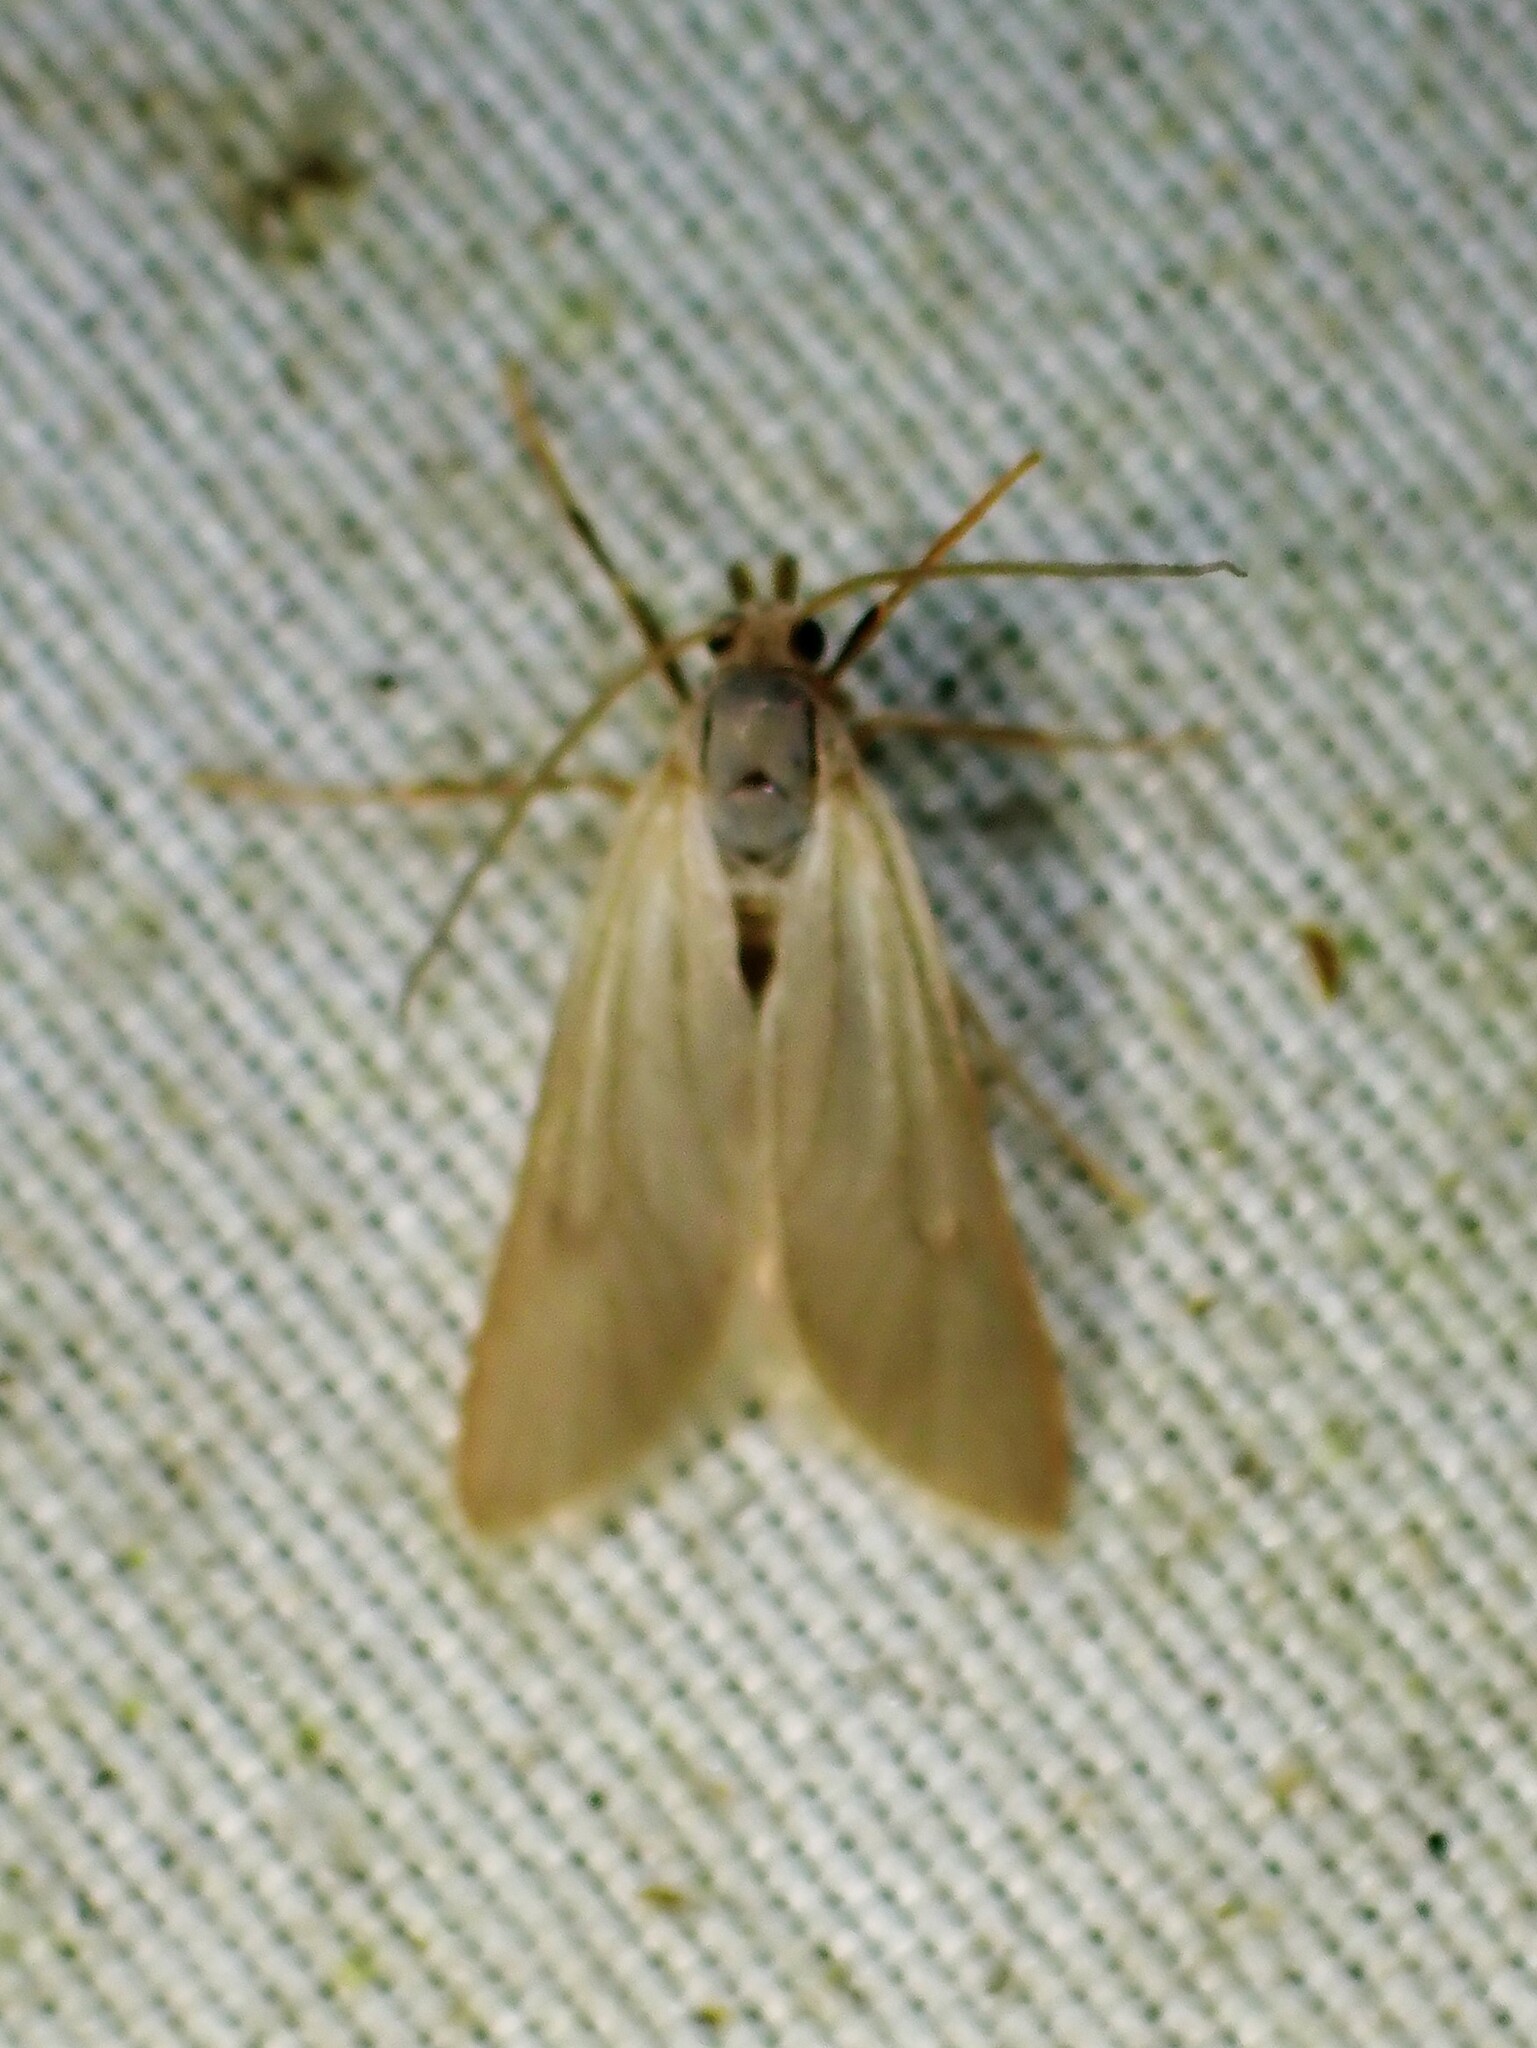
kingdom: Animalia
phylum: Arthropoda
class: Insecta
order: Lepidoptera
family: Crambidae
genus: Acentria
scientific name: Acentria ephemerella
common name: European water moth
